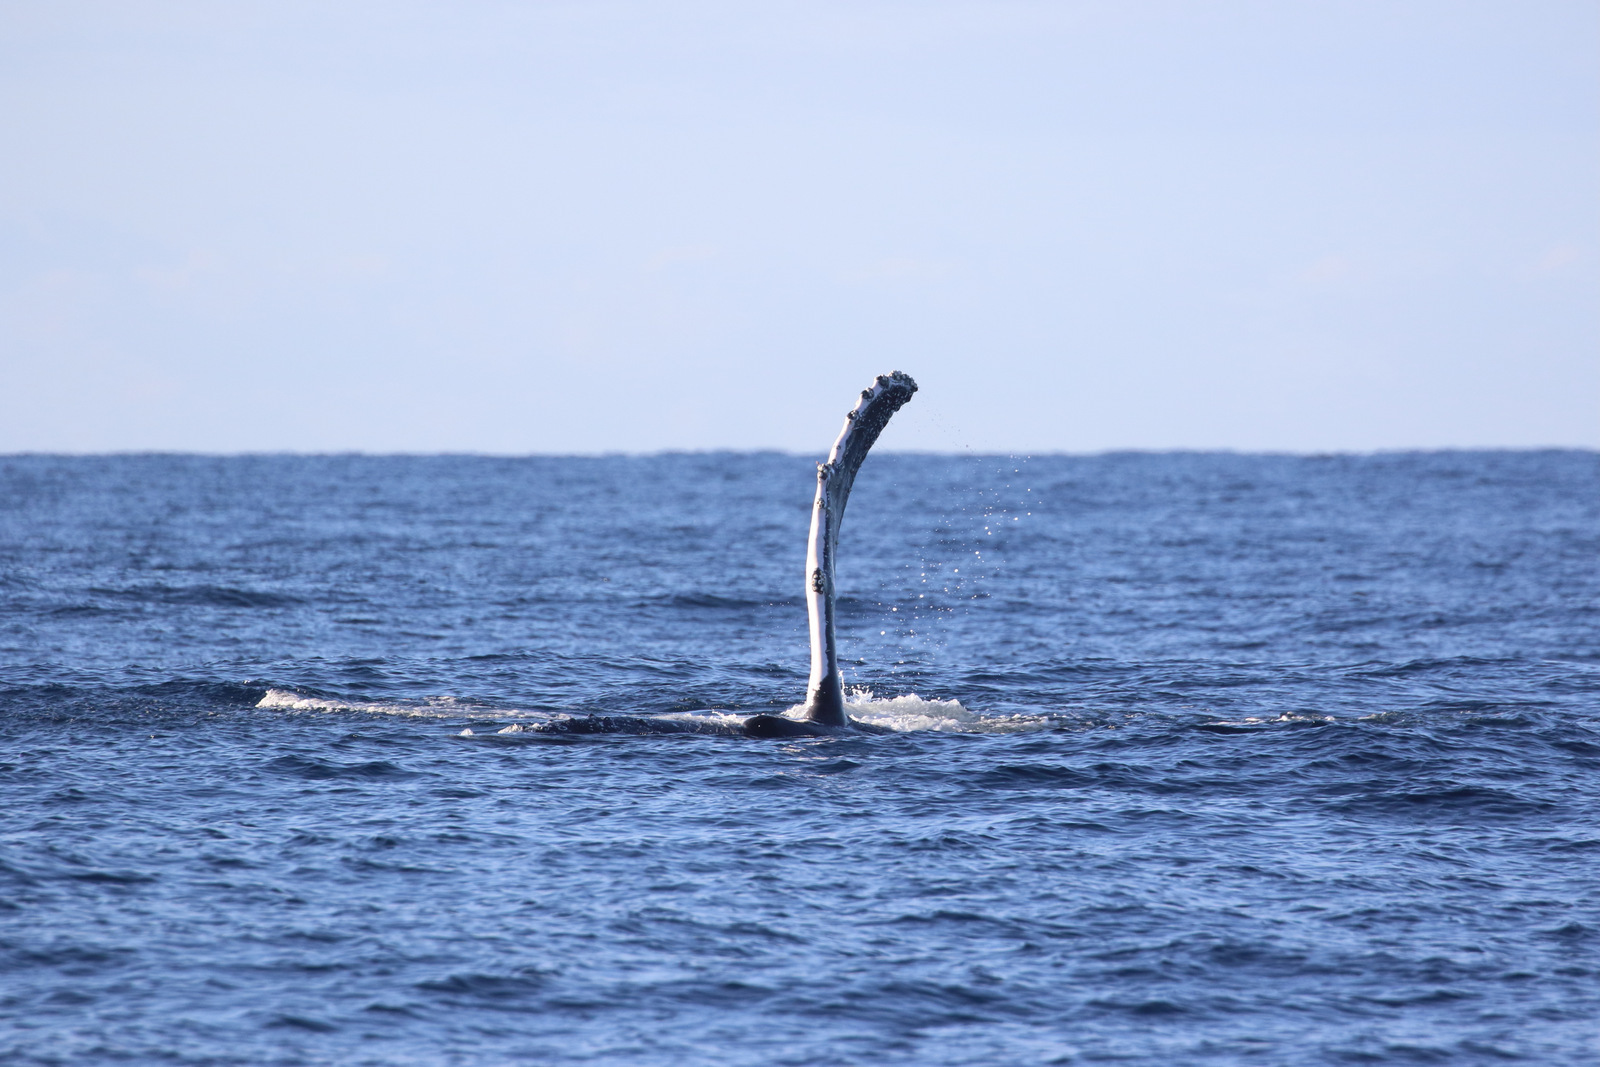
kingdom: Animalia
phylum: Chordata
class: Mammalia
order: Cetacea
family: Balaenopteridae
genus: Megaptera
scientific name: Megaptera novaeangliae
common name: Humpback whale
